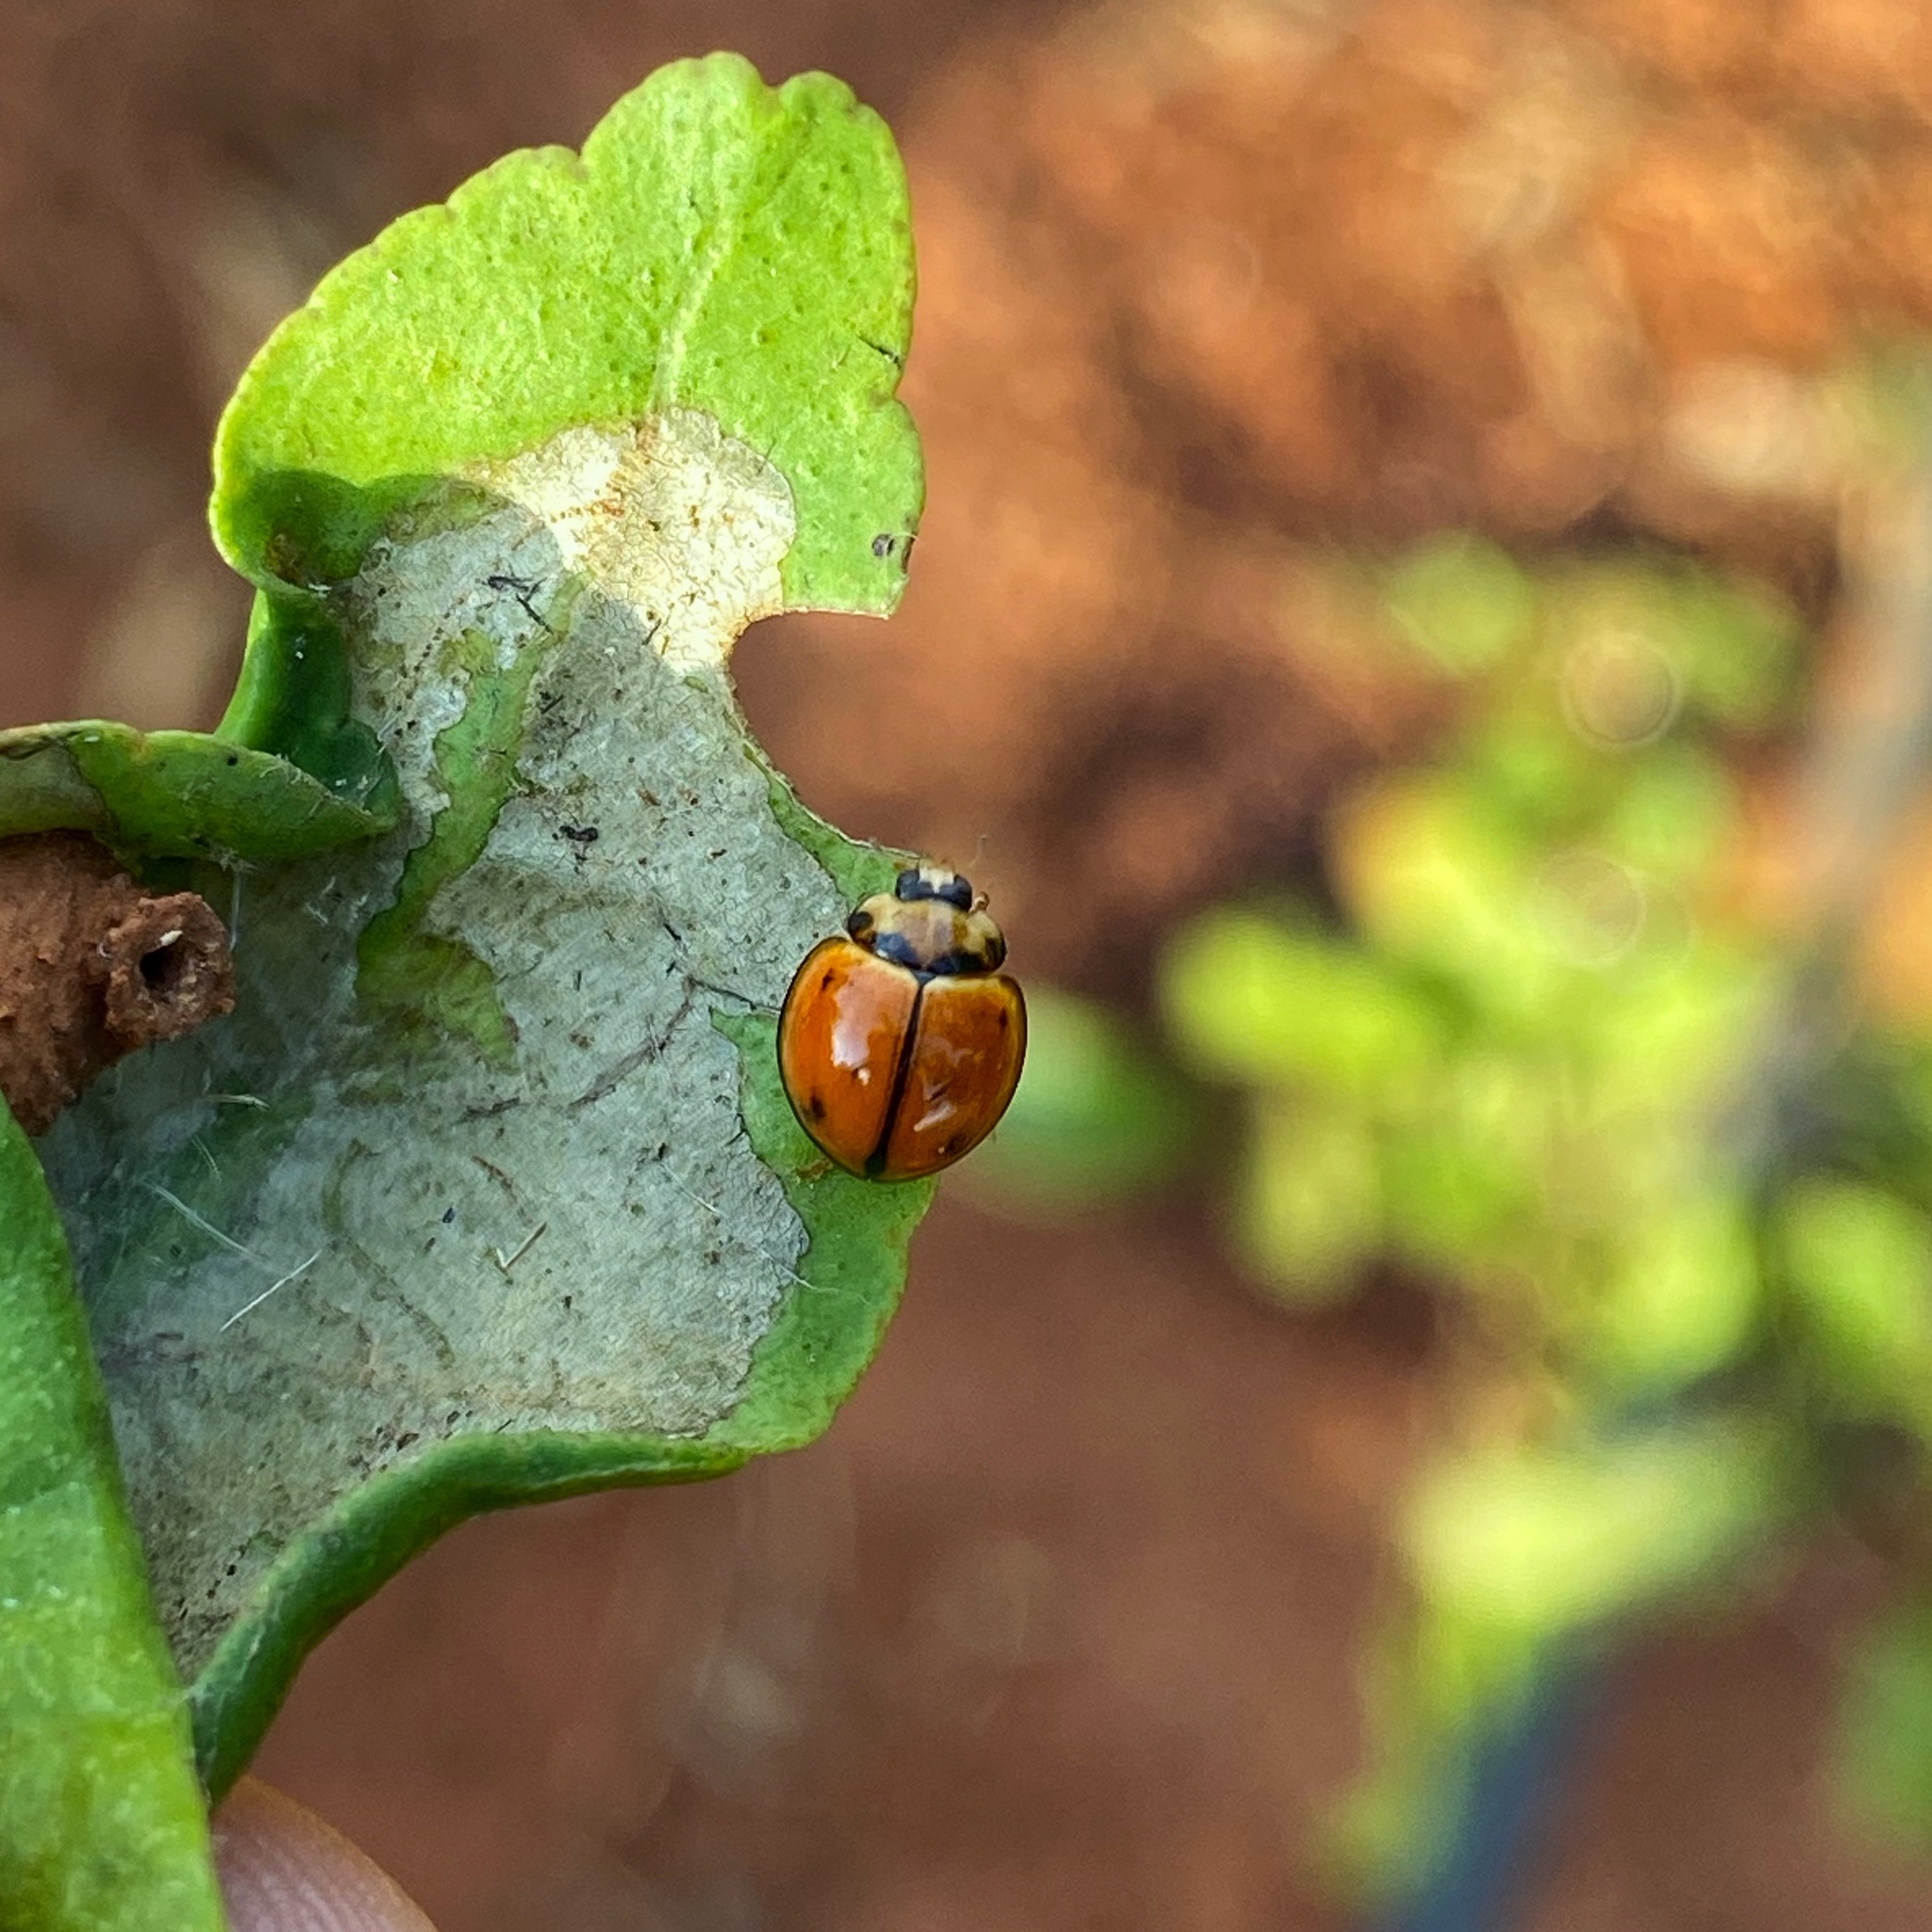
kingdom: Animalia
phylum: Arthropoda
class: Insecta
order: Coleoptera
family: Coccinellidae
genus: Coelophora
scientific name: Coelophora inaequalis
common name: Common australian lady beetle
